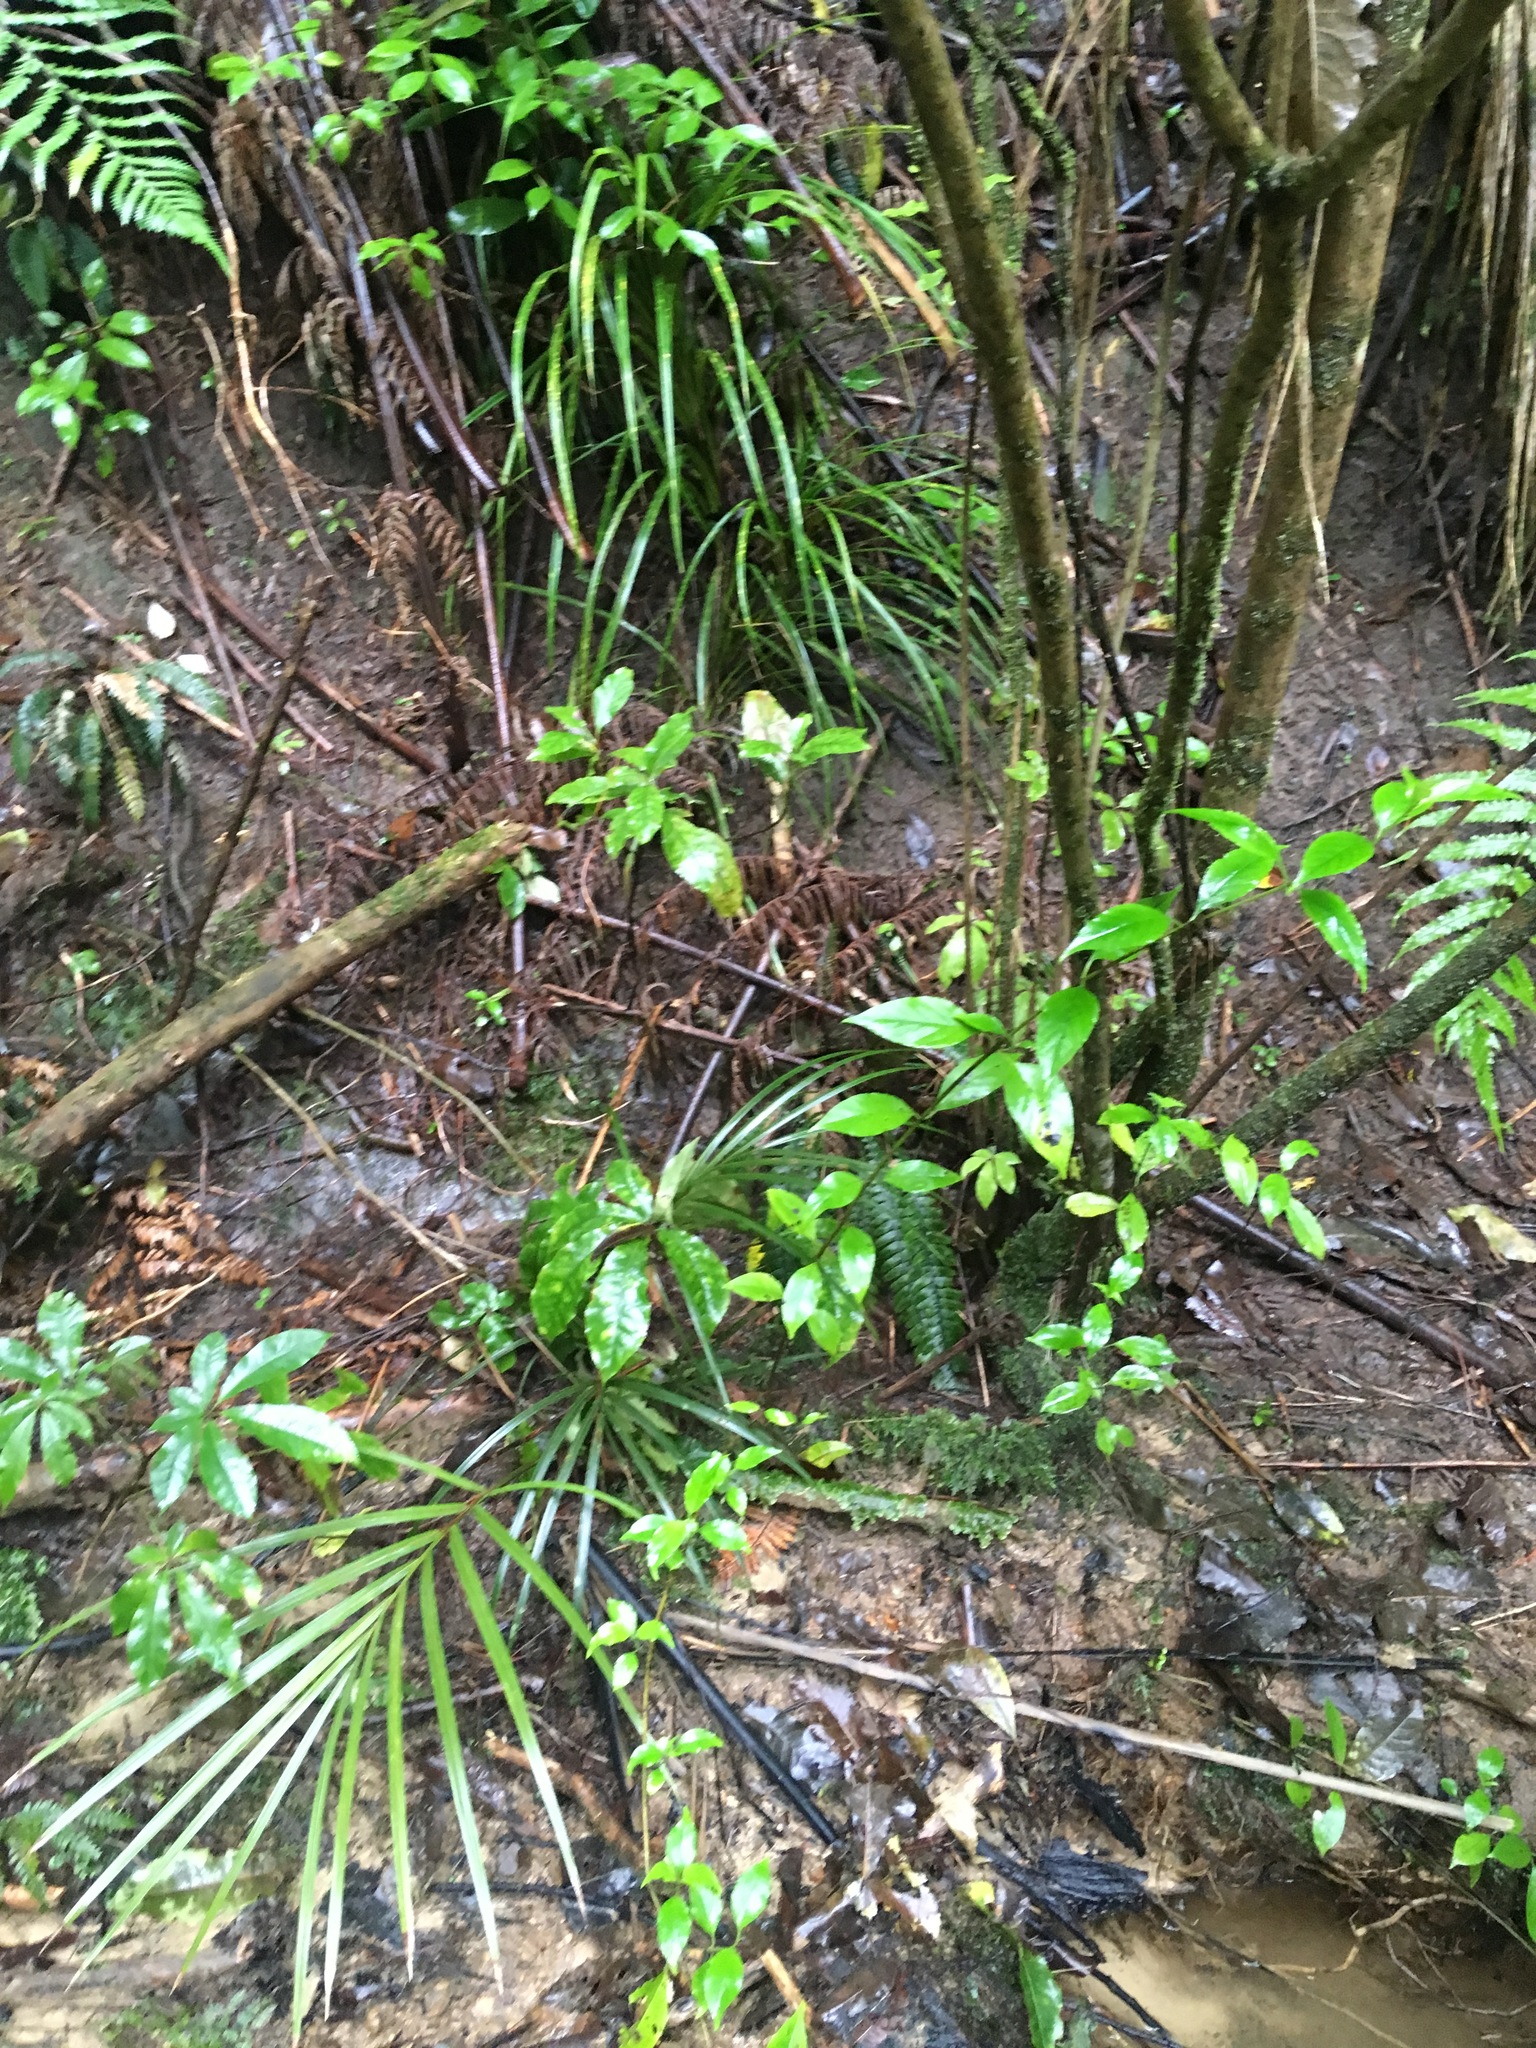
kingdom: Plantae
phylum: Tracheophyta
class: Magnoliopsida
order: Gentianales
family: Loganiaceae
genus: Geniostoma
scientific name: Geniostoma ligustrifolium
